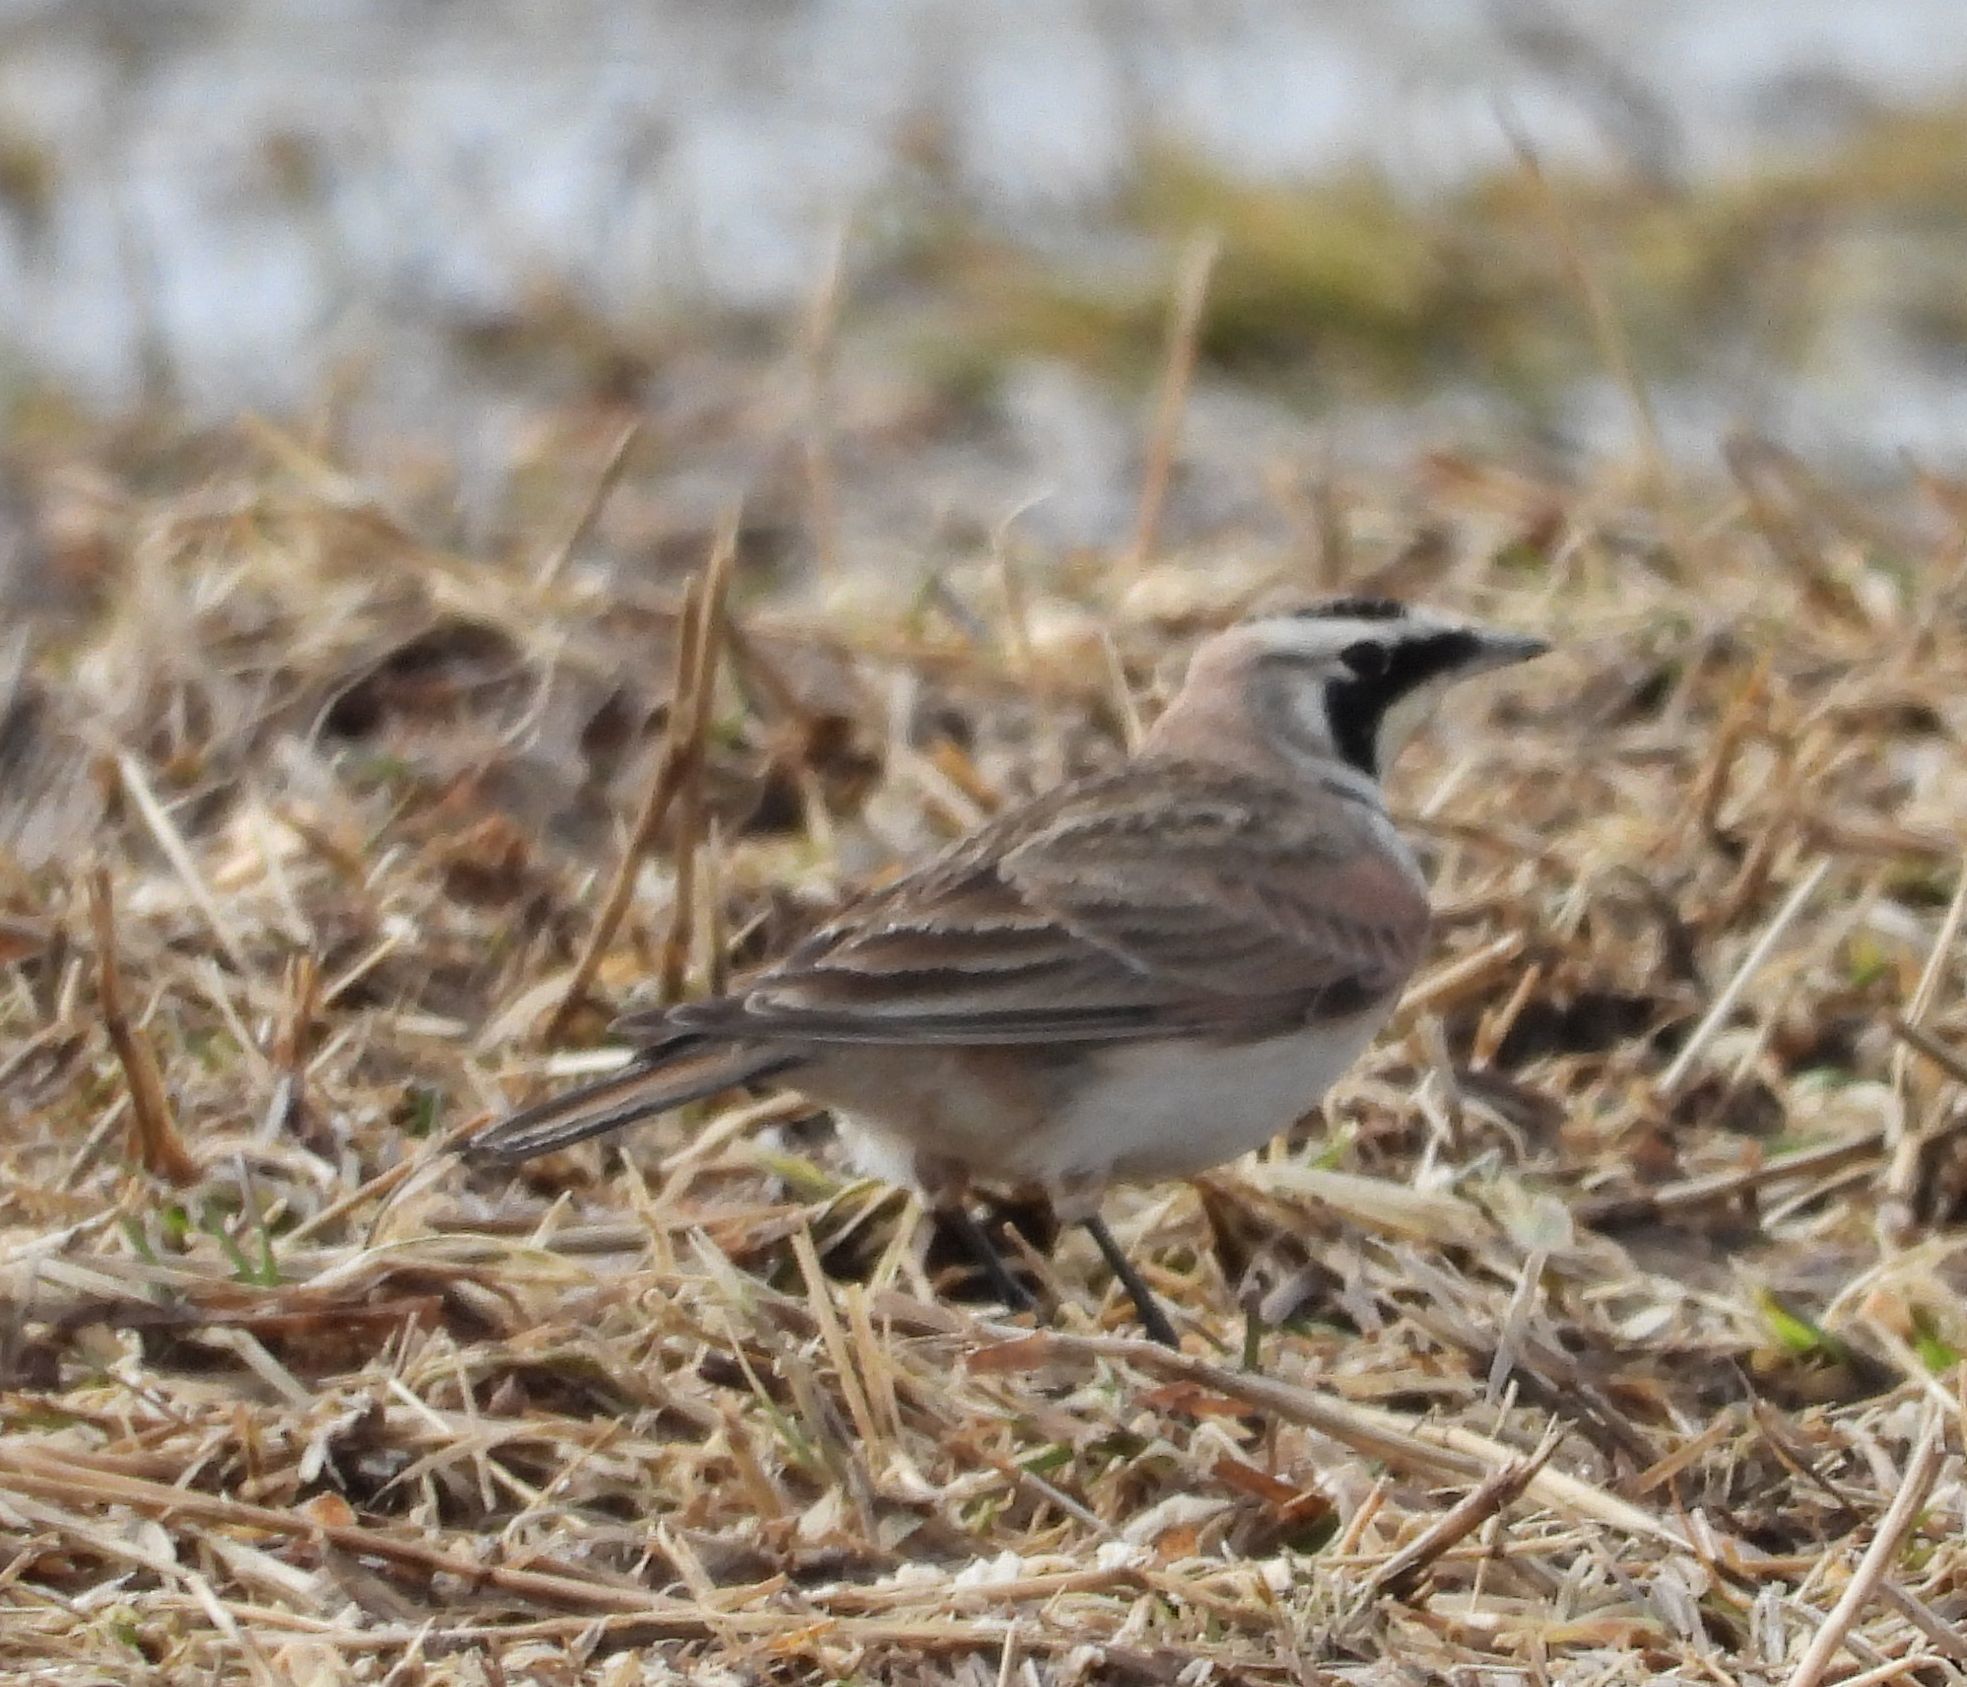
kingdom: Animalia
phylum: Chordata
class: Aves
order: Passeriformes
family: Alaudidae
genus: Eremophila
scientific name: Eremophila alpestris
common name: Horned lark
